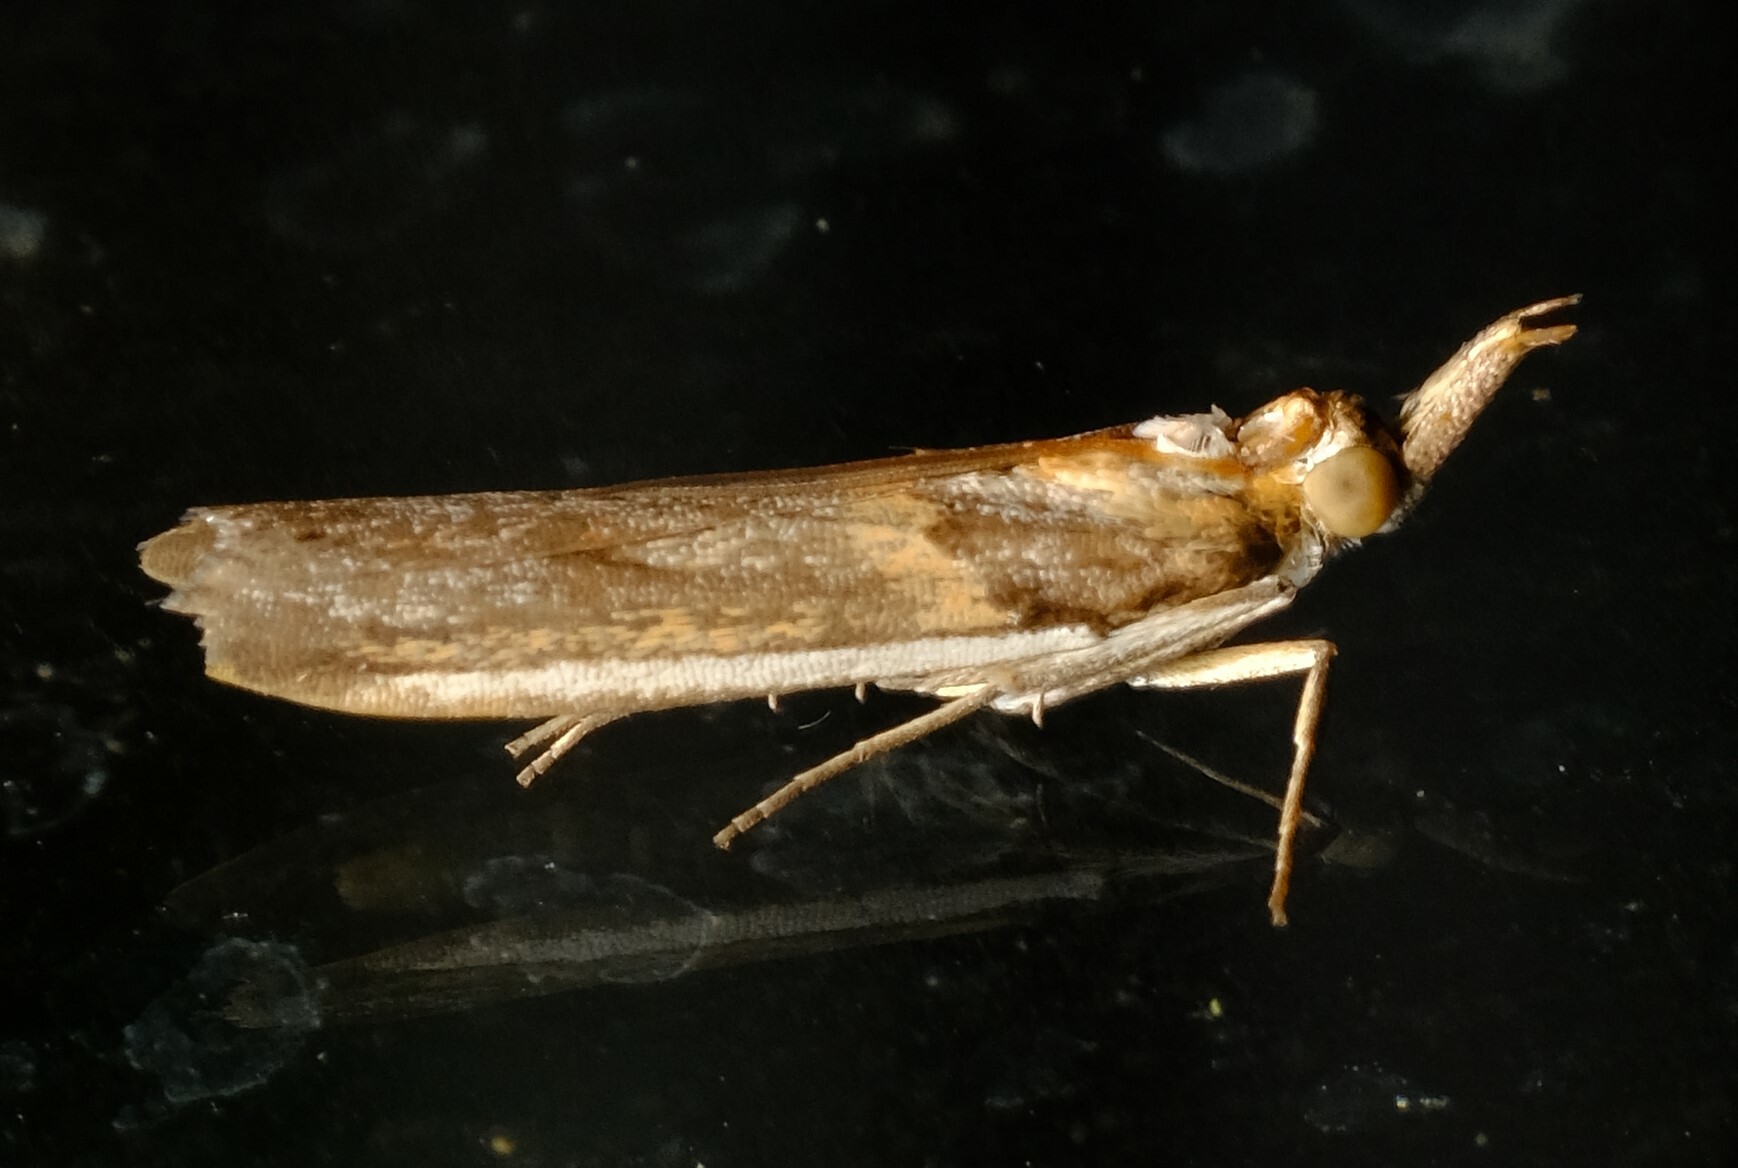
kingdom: Animalia
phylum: Arthropoda
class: Insecta
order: Lepidoptera
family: Pyralidae
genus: Etiella
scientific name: Etiella behrii
